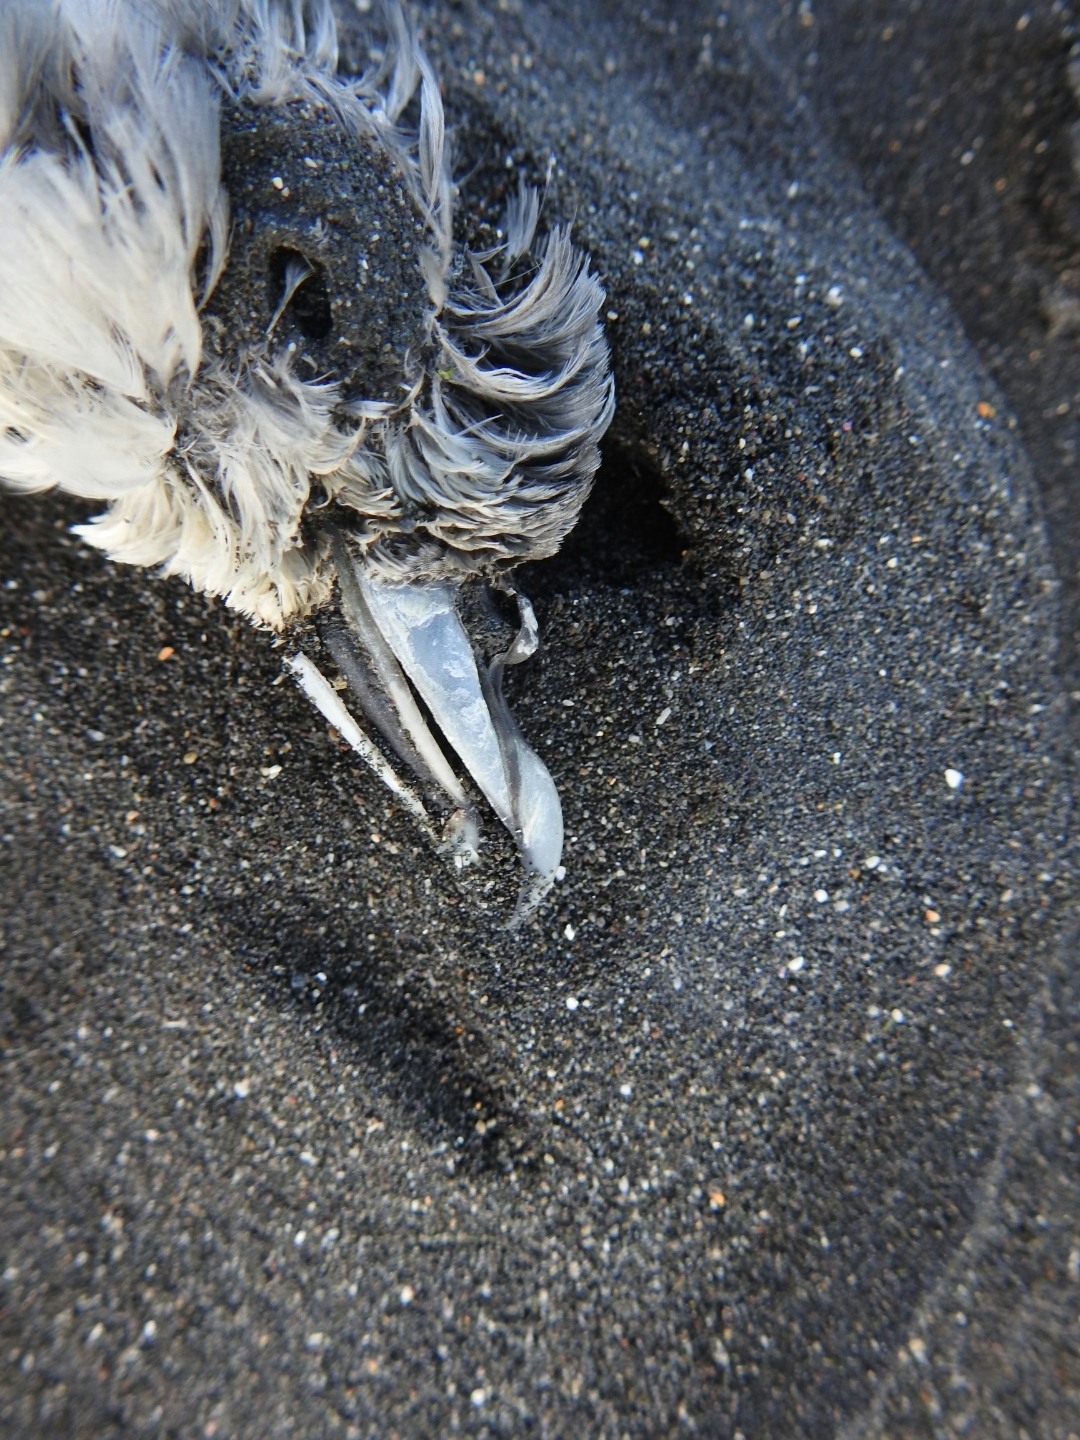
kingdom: Animalia
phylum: Chordata
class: Aves
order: Procellariiformes
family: Procellariidae
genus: Pachyptila
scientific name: Pachyptila turtur
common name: Fairy prion
